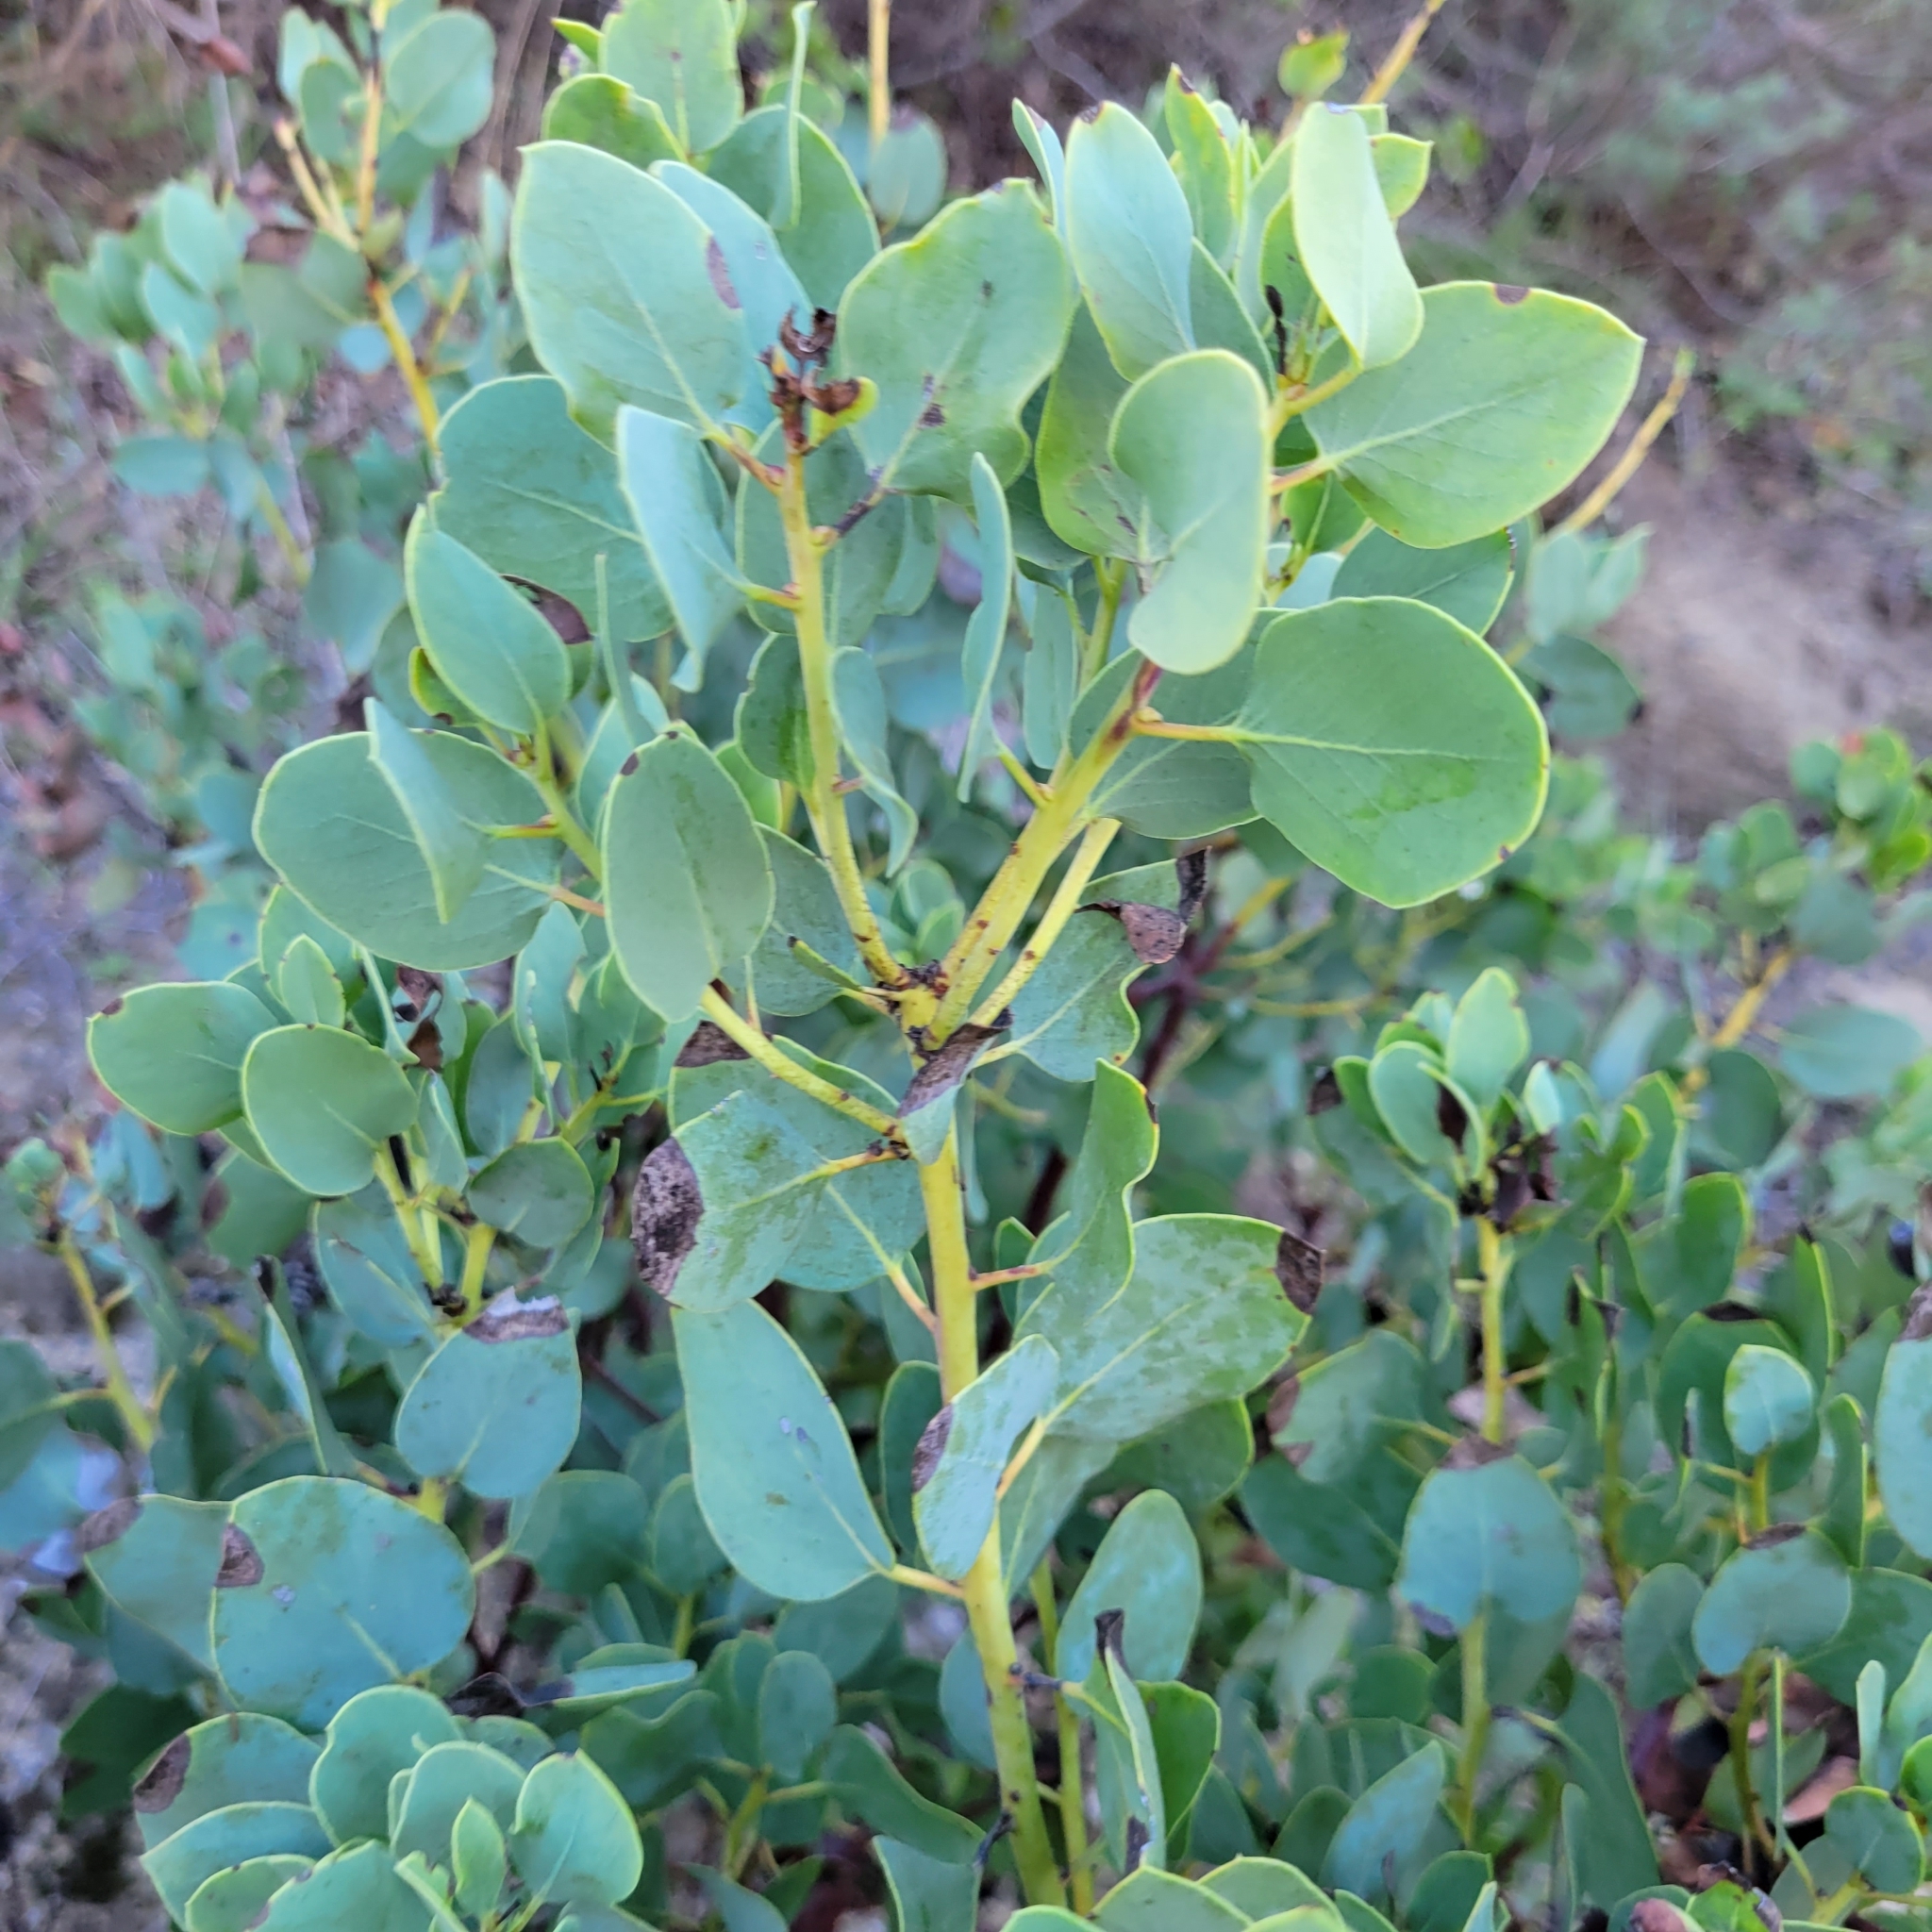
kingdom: Plantae
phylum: Tracheophyta
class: Magnoliopsida
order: Ericales
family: Ericaceae
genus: Arctostaphylos
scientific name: Arctostaphylos glauca
